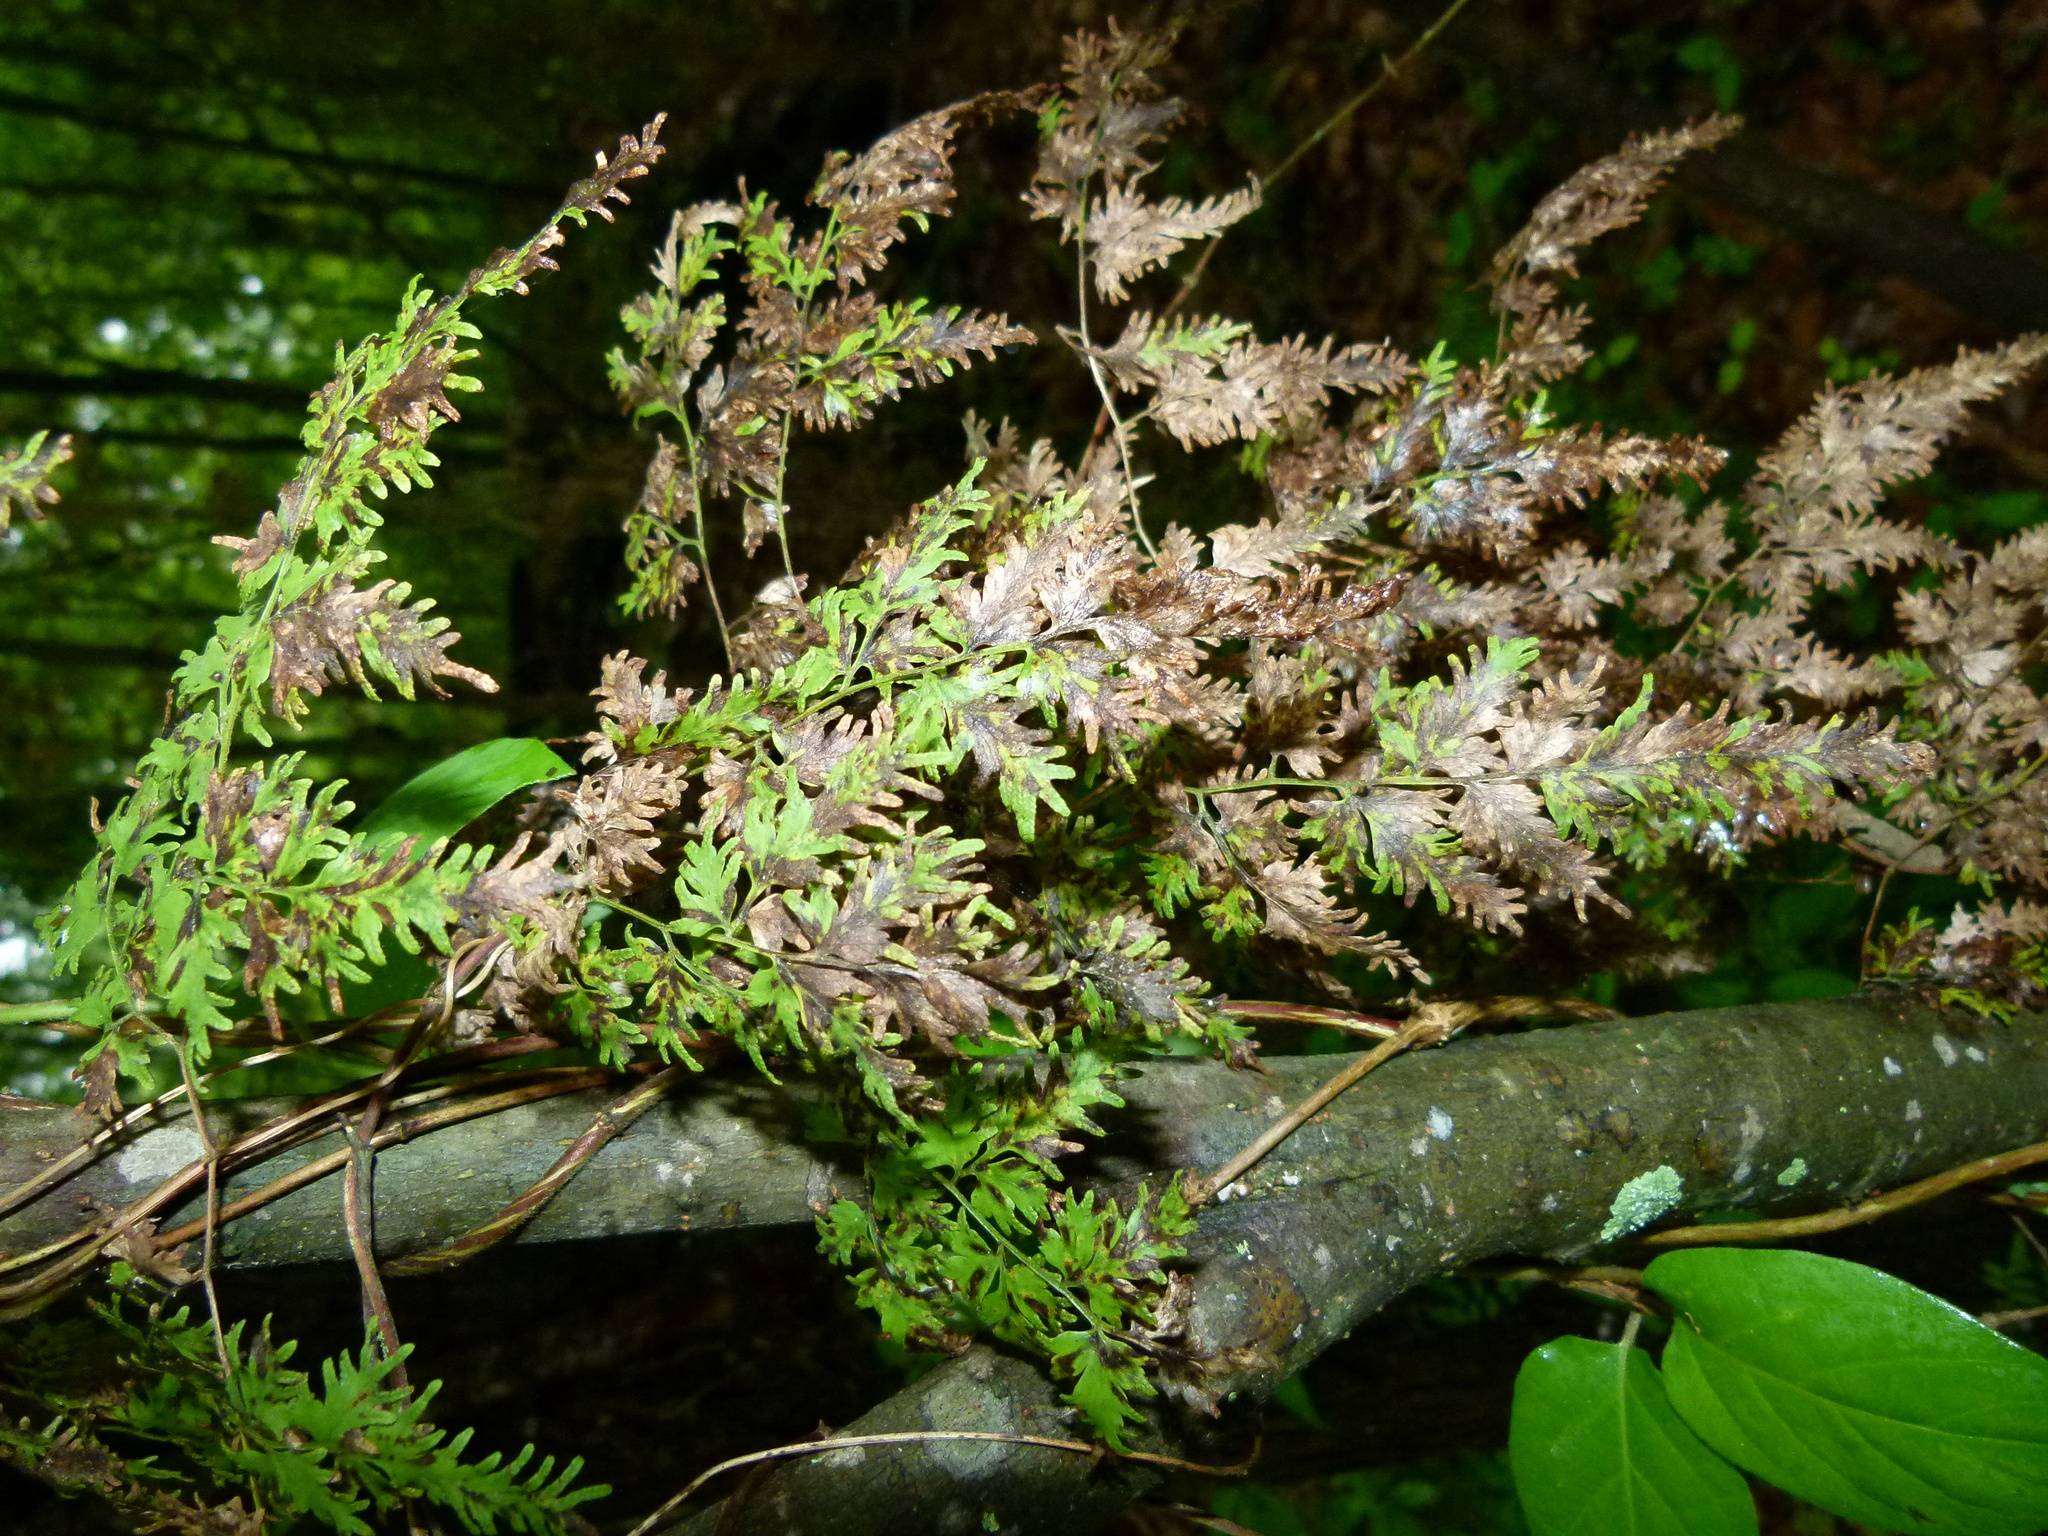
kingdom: Plantae
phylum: Tracheophyta
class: Polypodiopsida
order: Schizaeales
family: Lygodiaceae
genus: Lygodium
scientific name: Lygodium japonicum
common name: Japanese climbing fern
